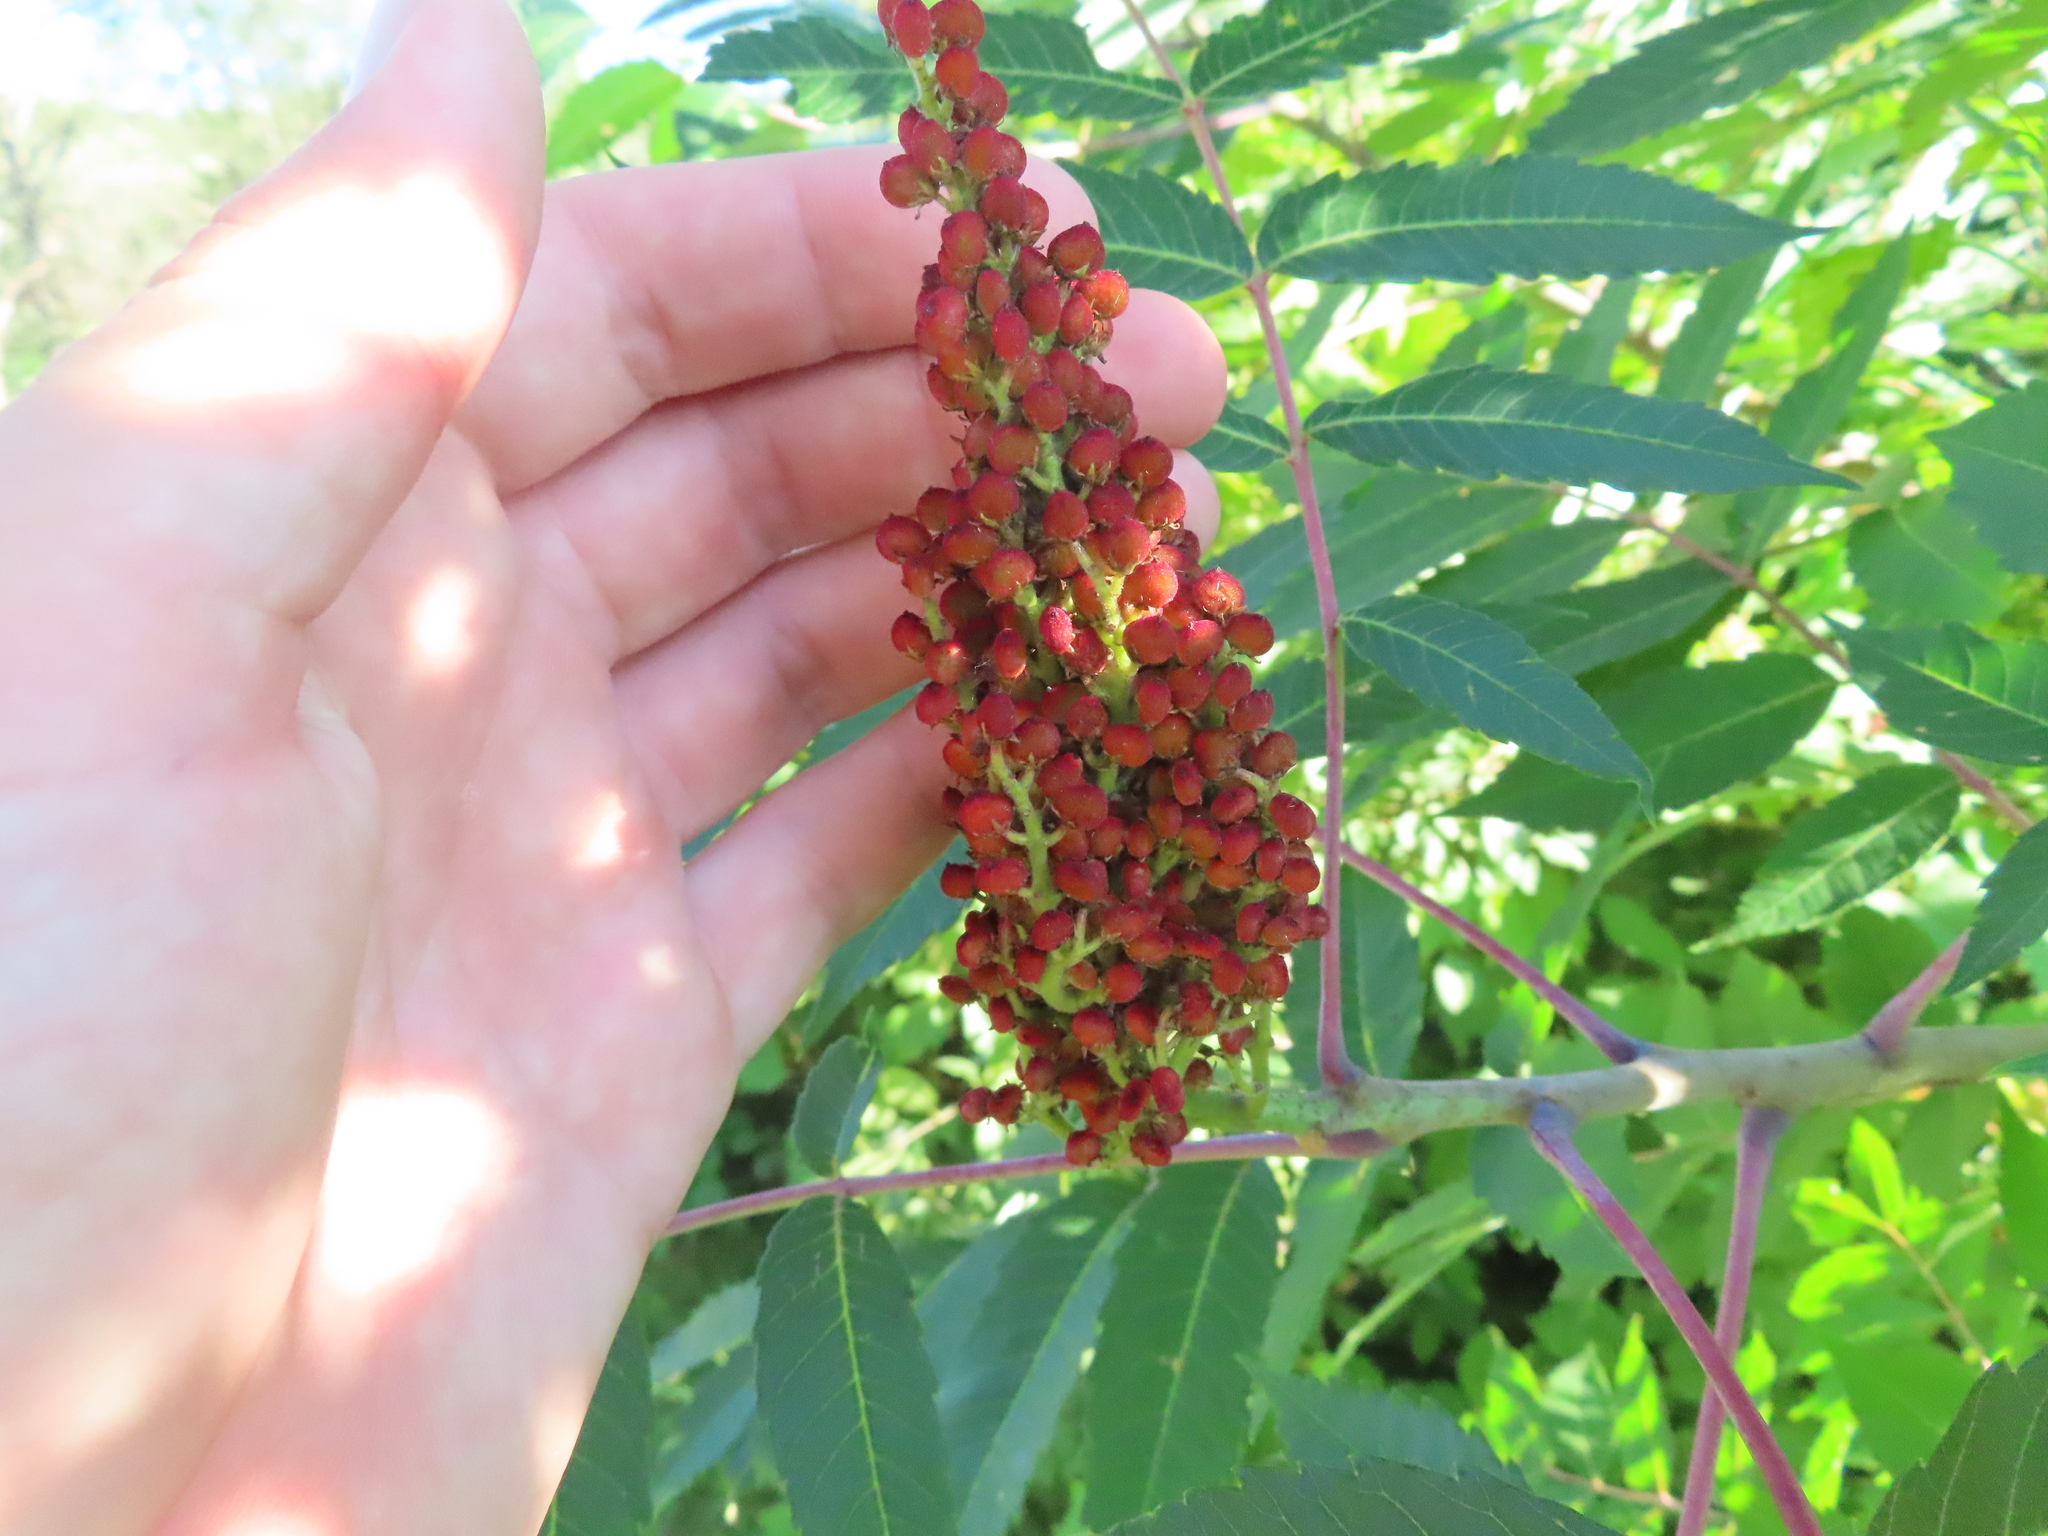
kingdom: Plantae
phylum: Tracheophyta
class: Magnoliopsida
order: Sapindales
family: Anacardiaceae
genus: Rhus
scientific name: Rhus glabra
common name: Scarlet sumac
